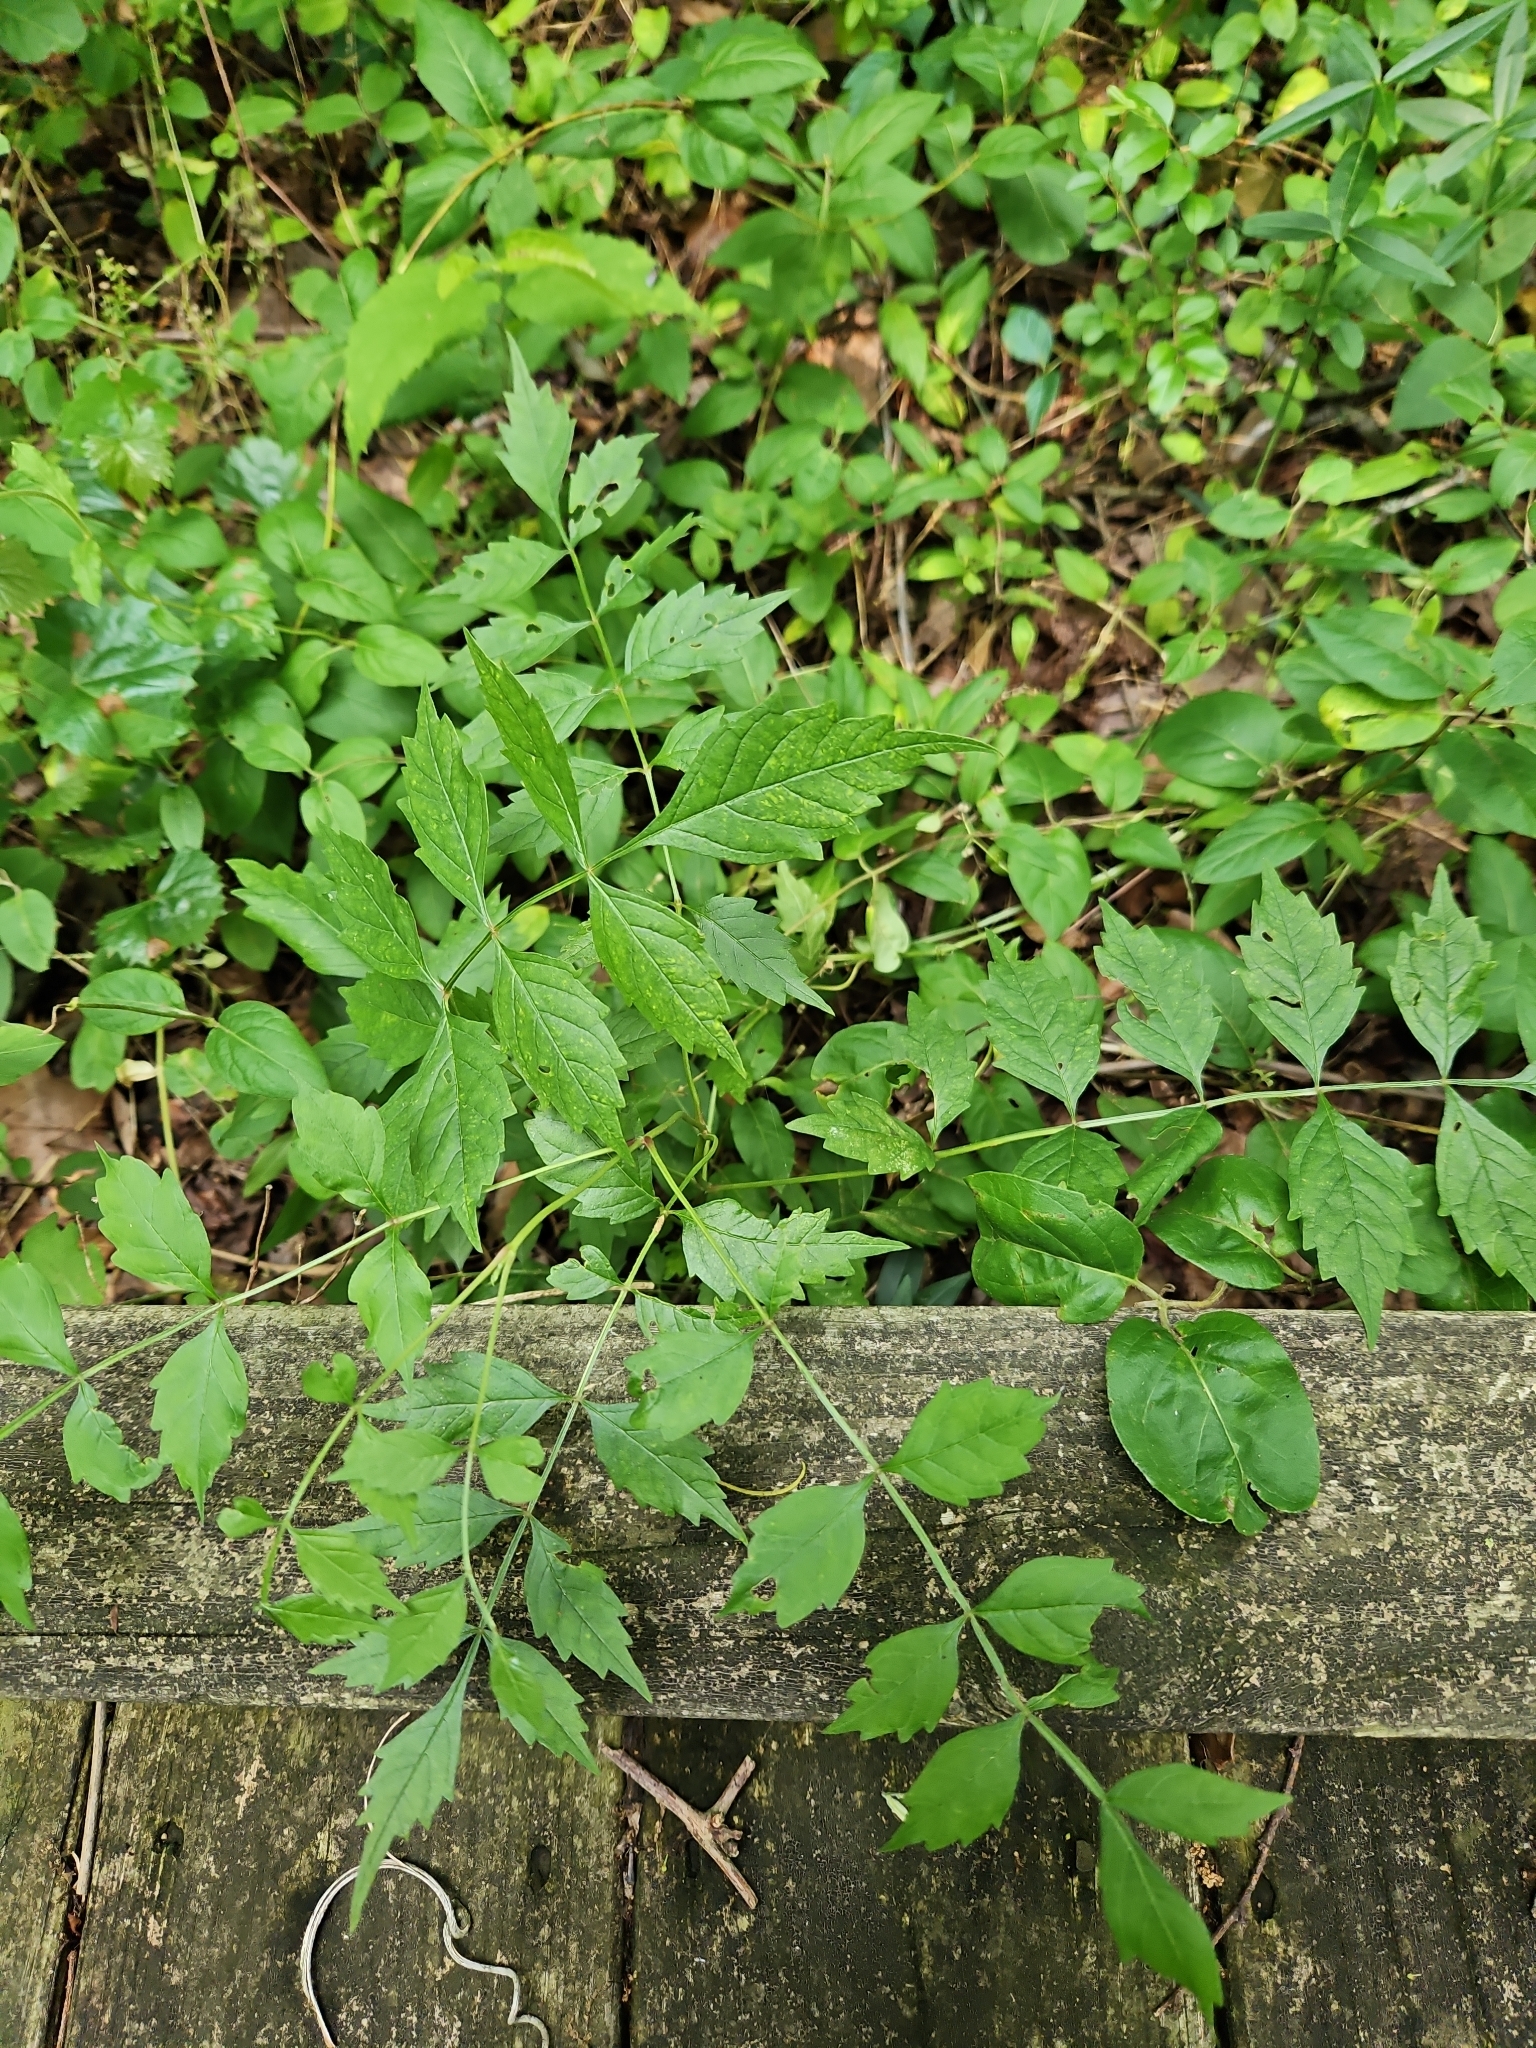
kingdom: Plantae
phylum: Tracheophyta
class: Magnoliopsida
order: Lamiales
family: Bignoniaceae
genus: Campsis
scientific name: Campsis radicans
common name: Trumpet-creeper
